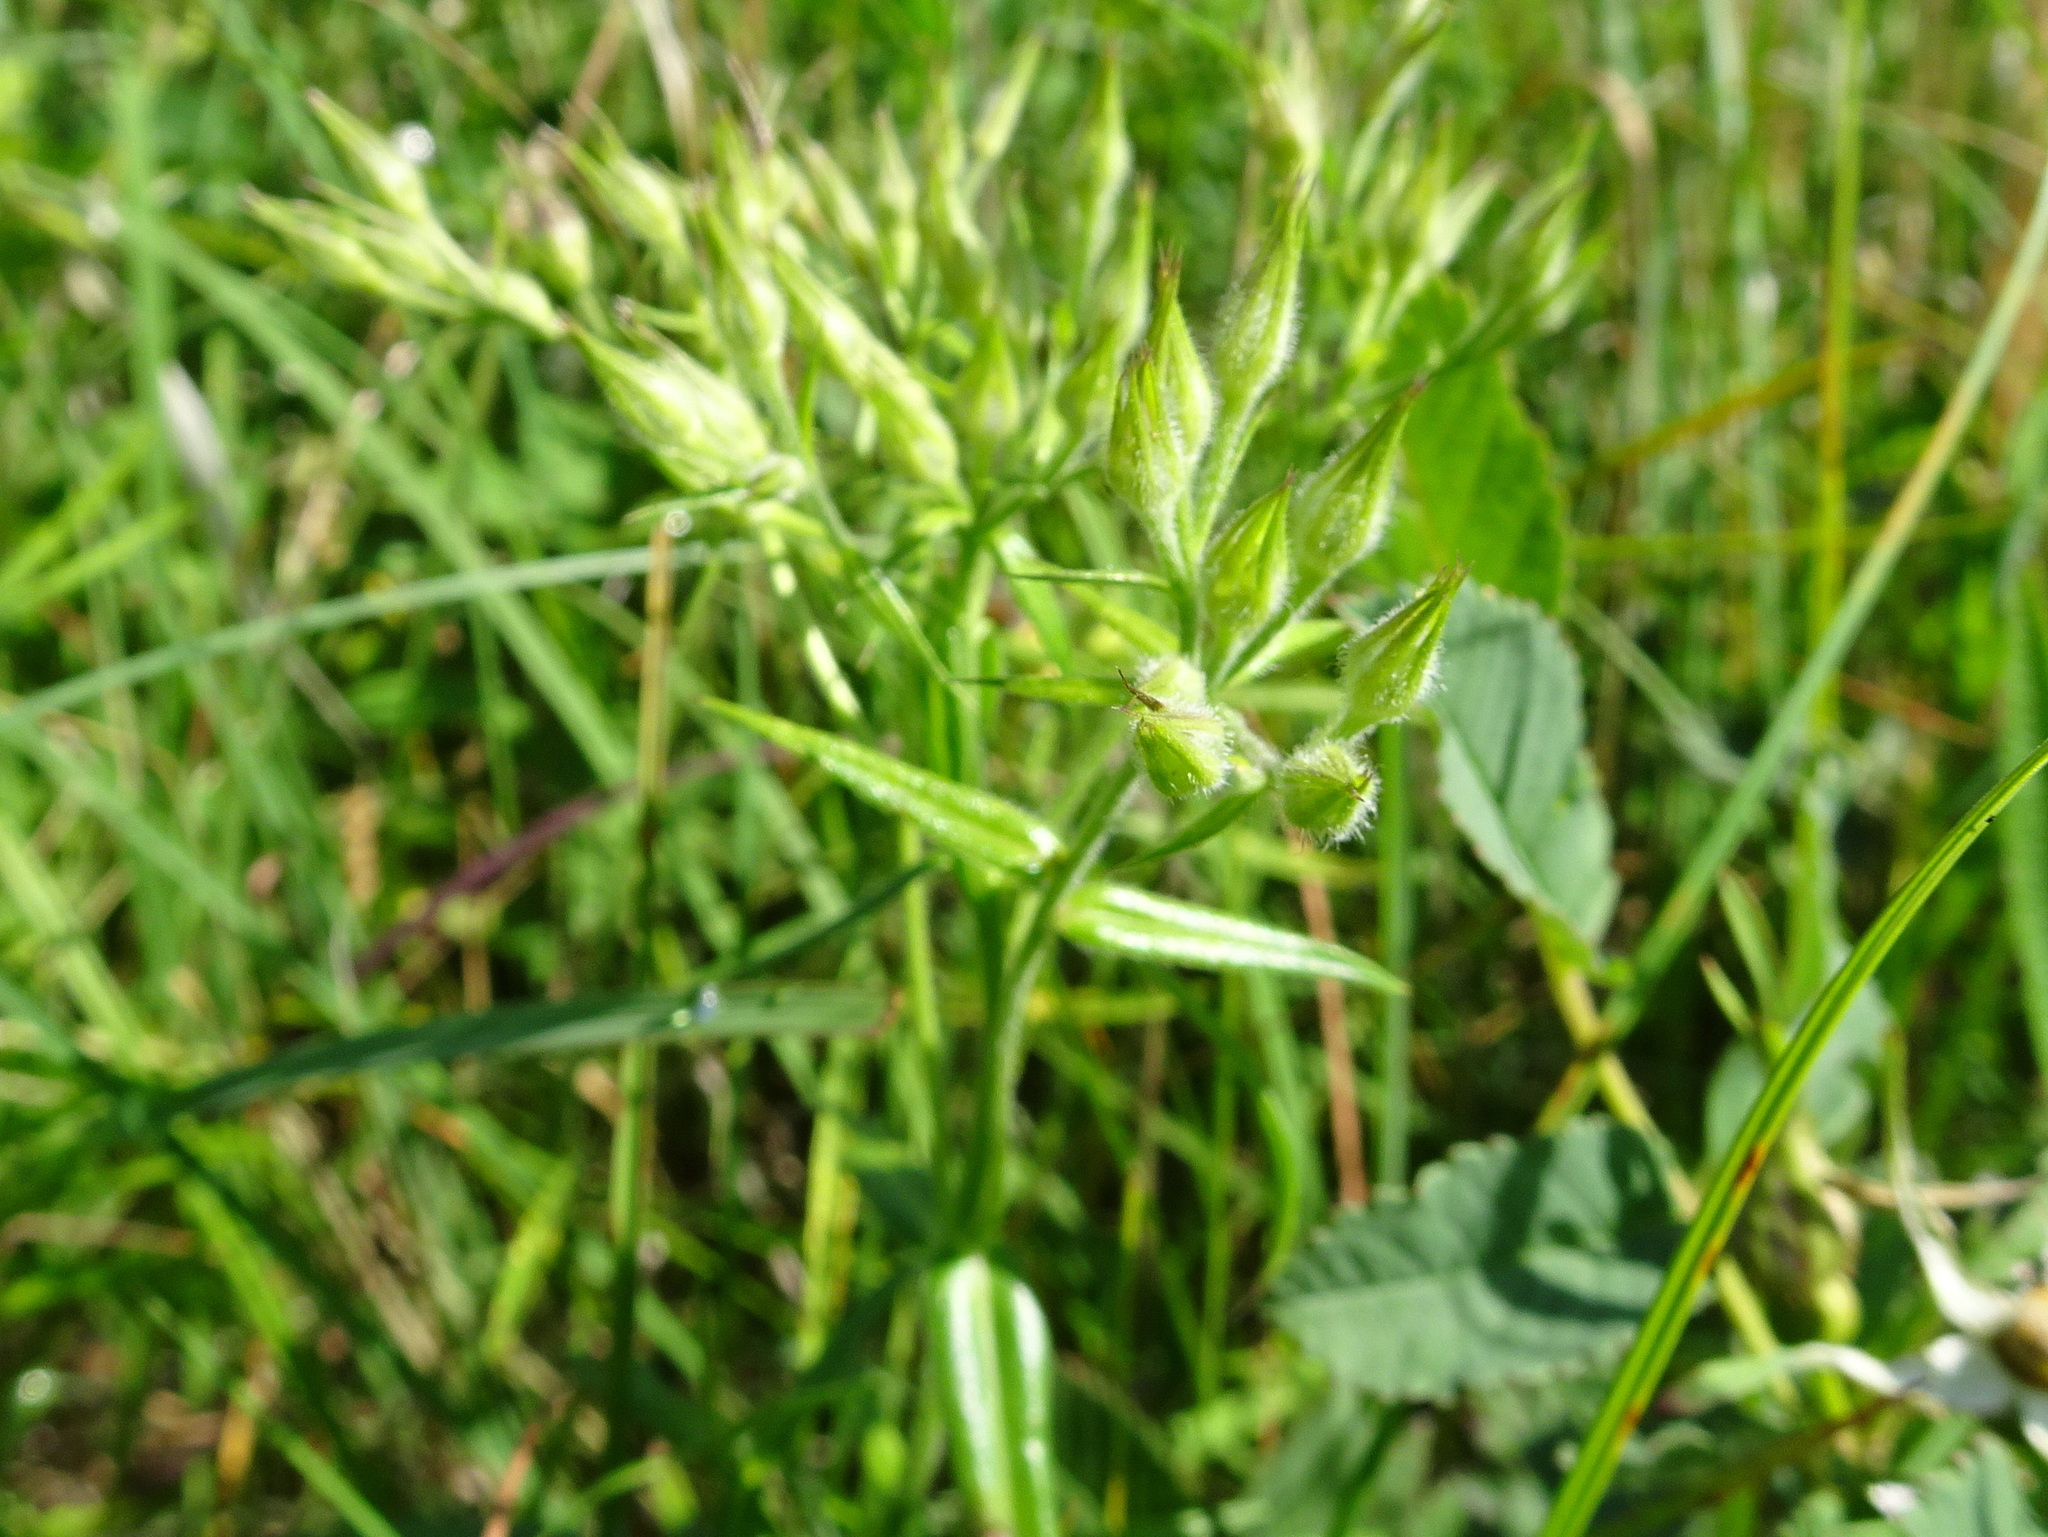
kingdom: Plantae
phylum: Tracheophyta
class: Magnoliopsida
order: Ericales
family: Polemoniaceae
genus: Phlox
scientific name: Phlox pilosa
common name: Prairie phlox
